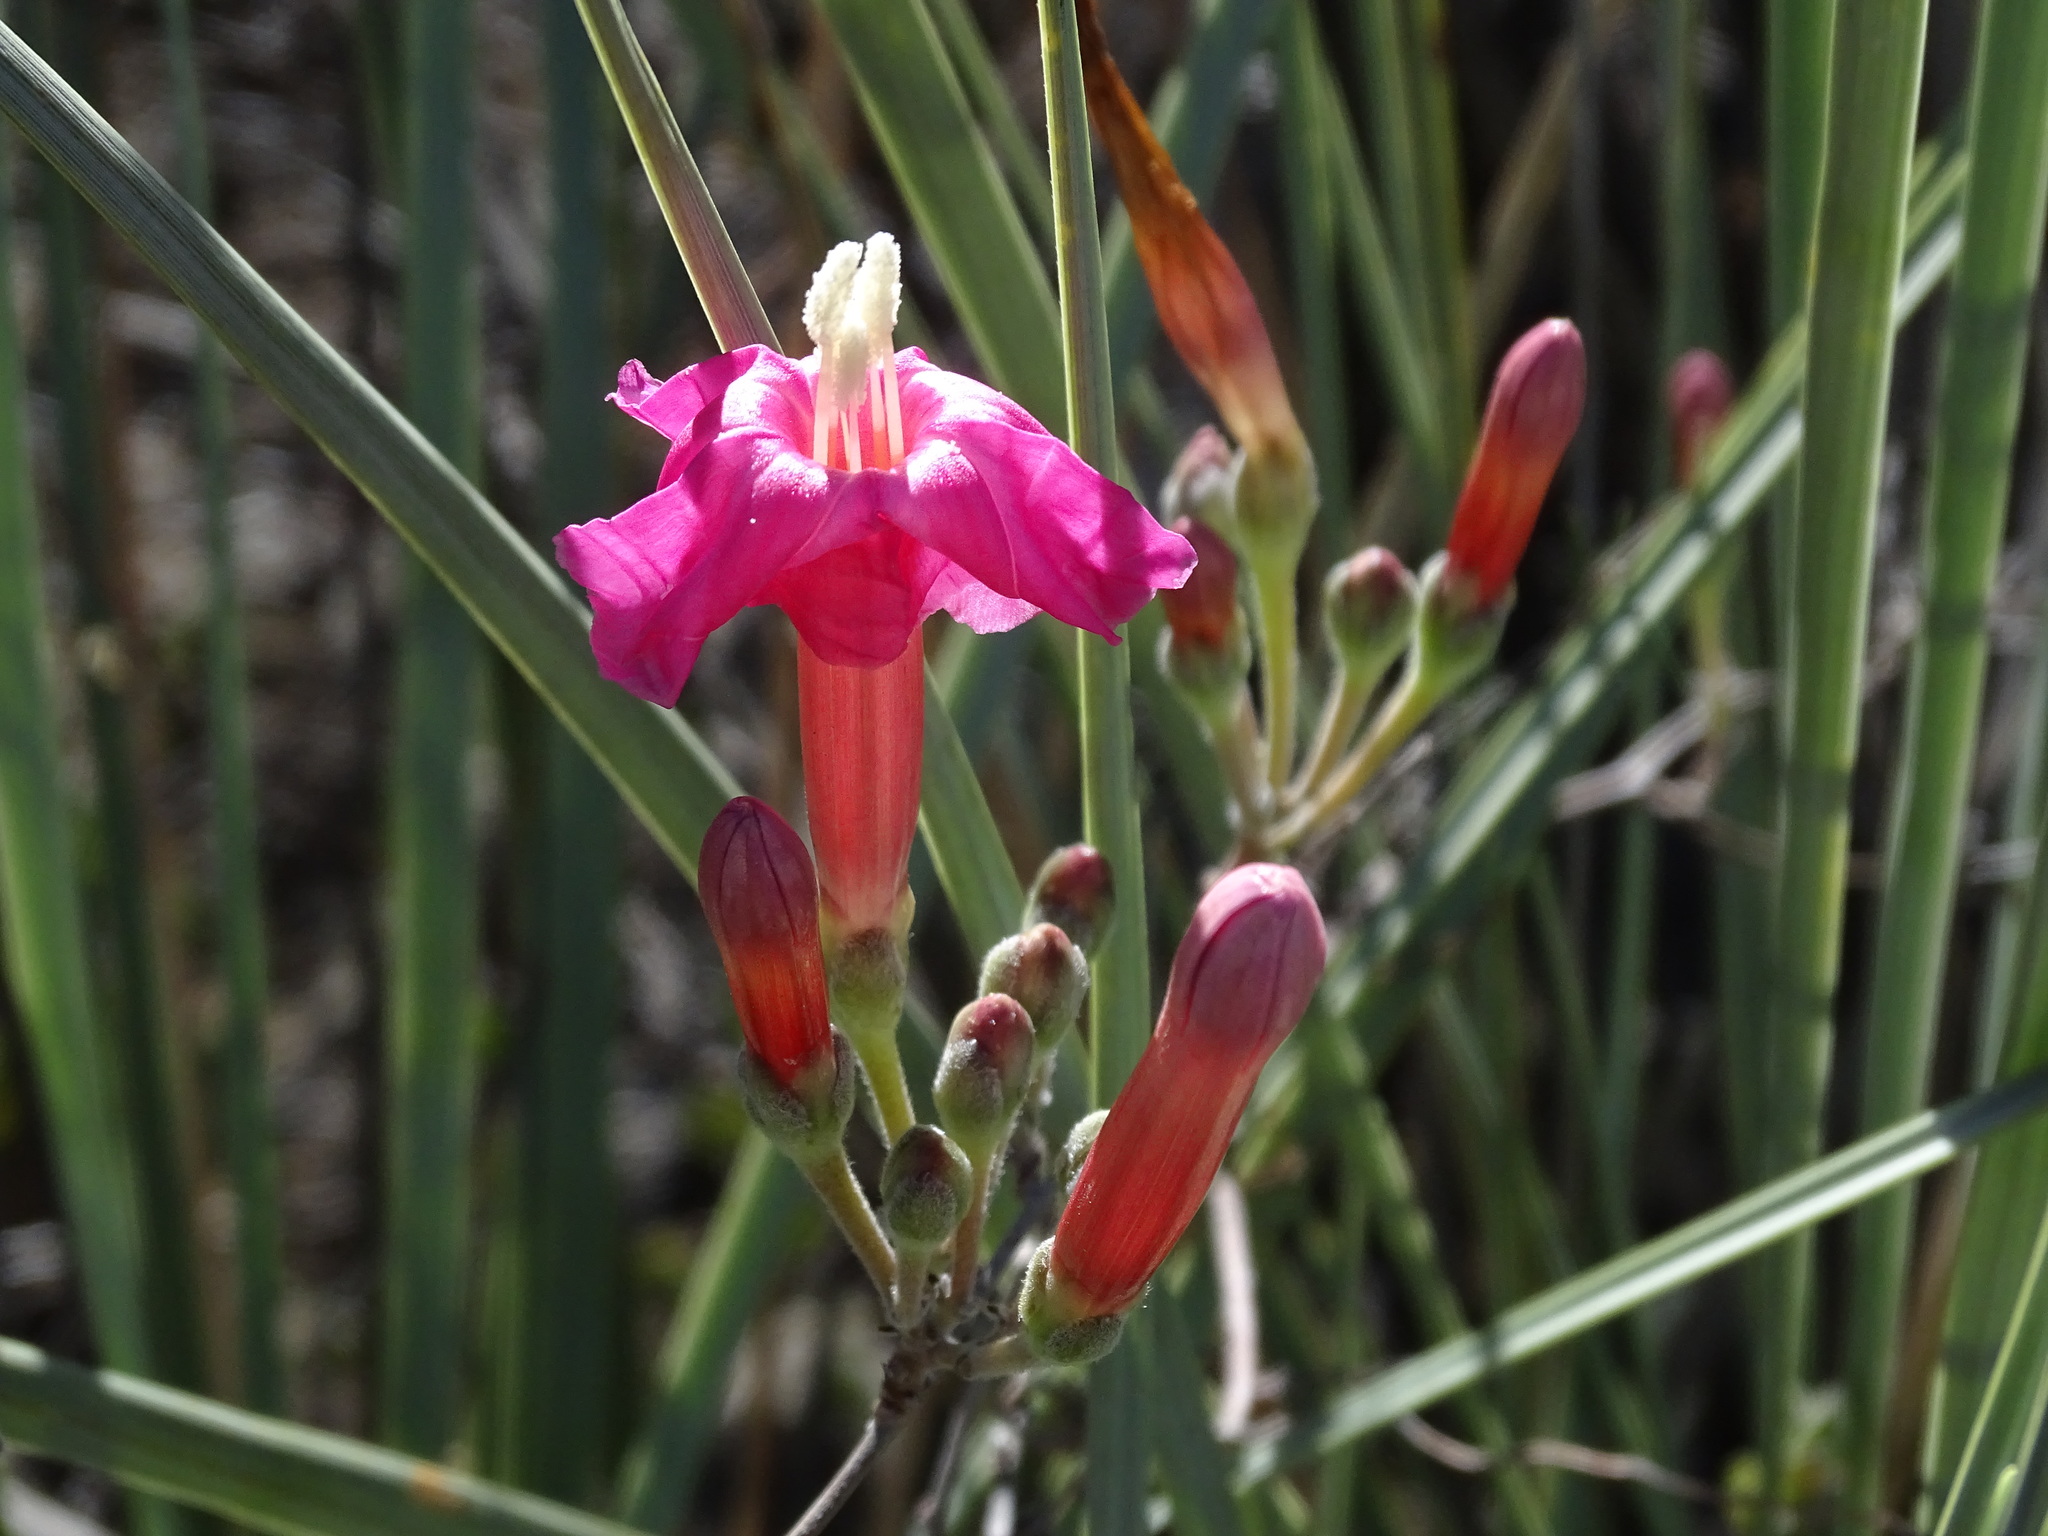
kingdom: Plantae
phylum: Tracheophyta
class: Magnoliopsida
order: Solanales
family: Convolvulaceae
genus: Ipomoea
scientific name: Ipomoea conzattii
